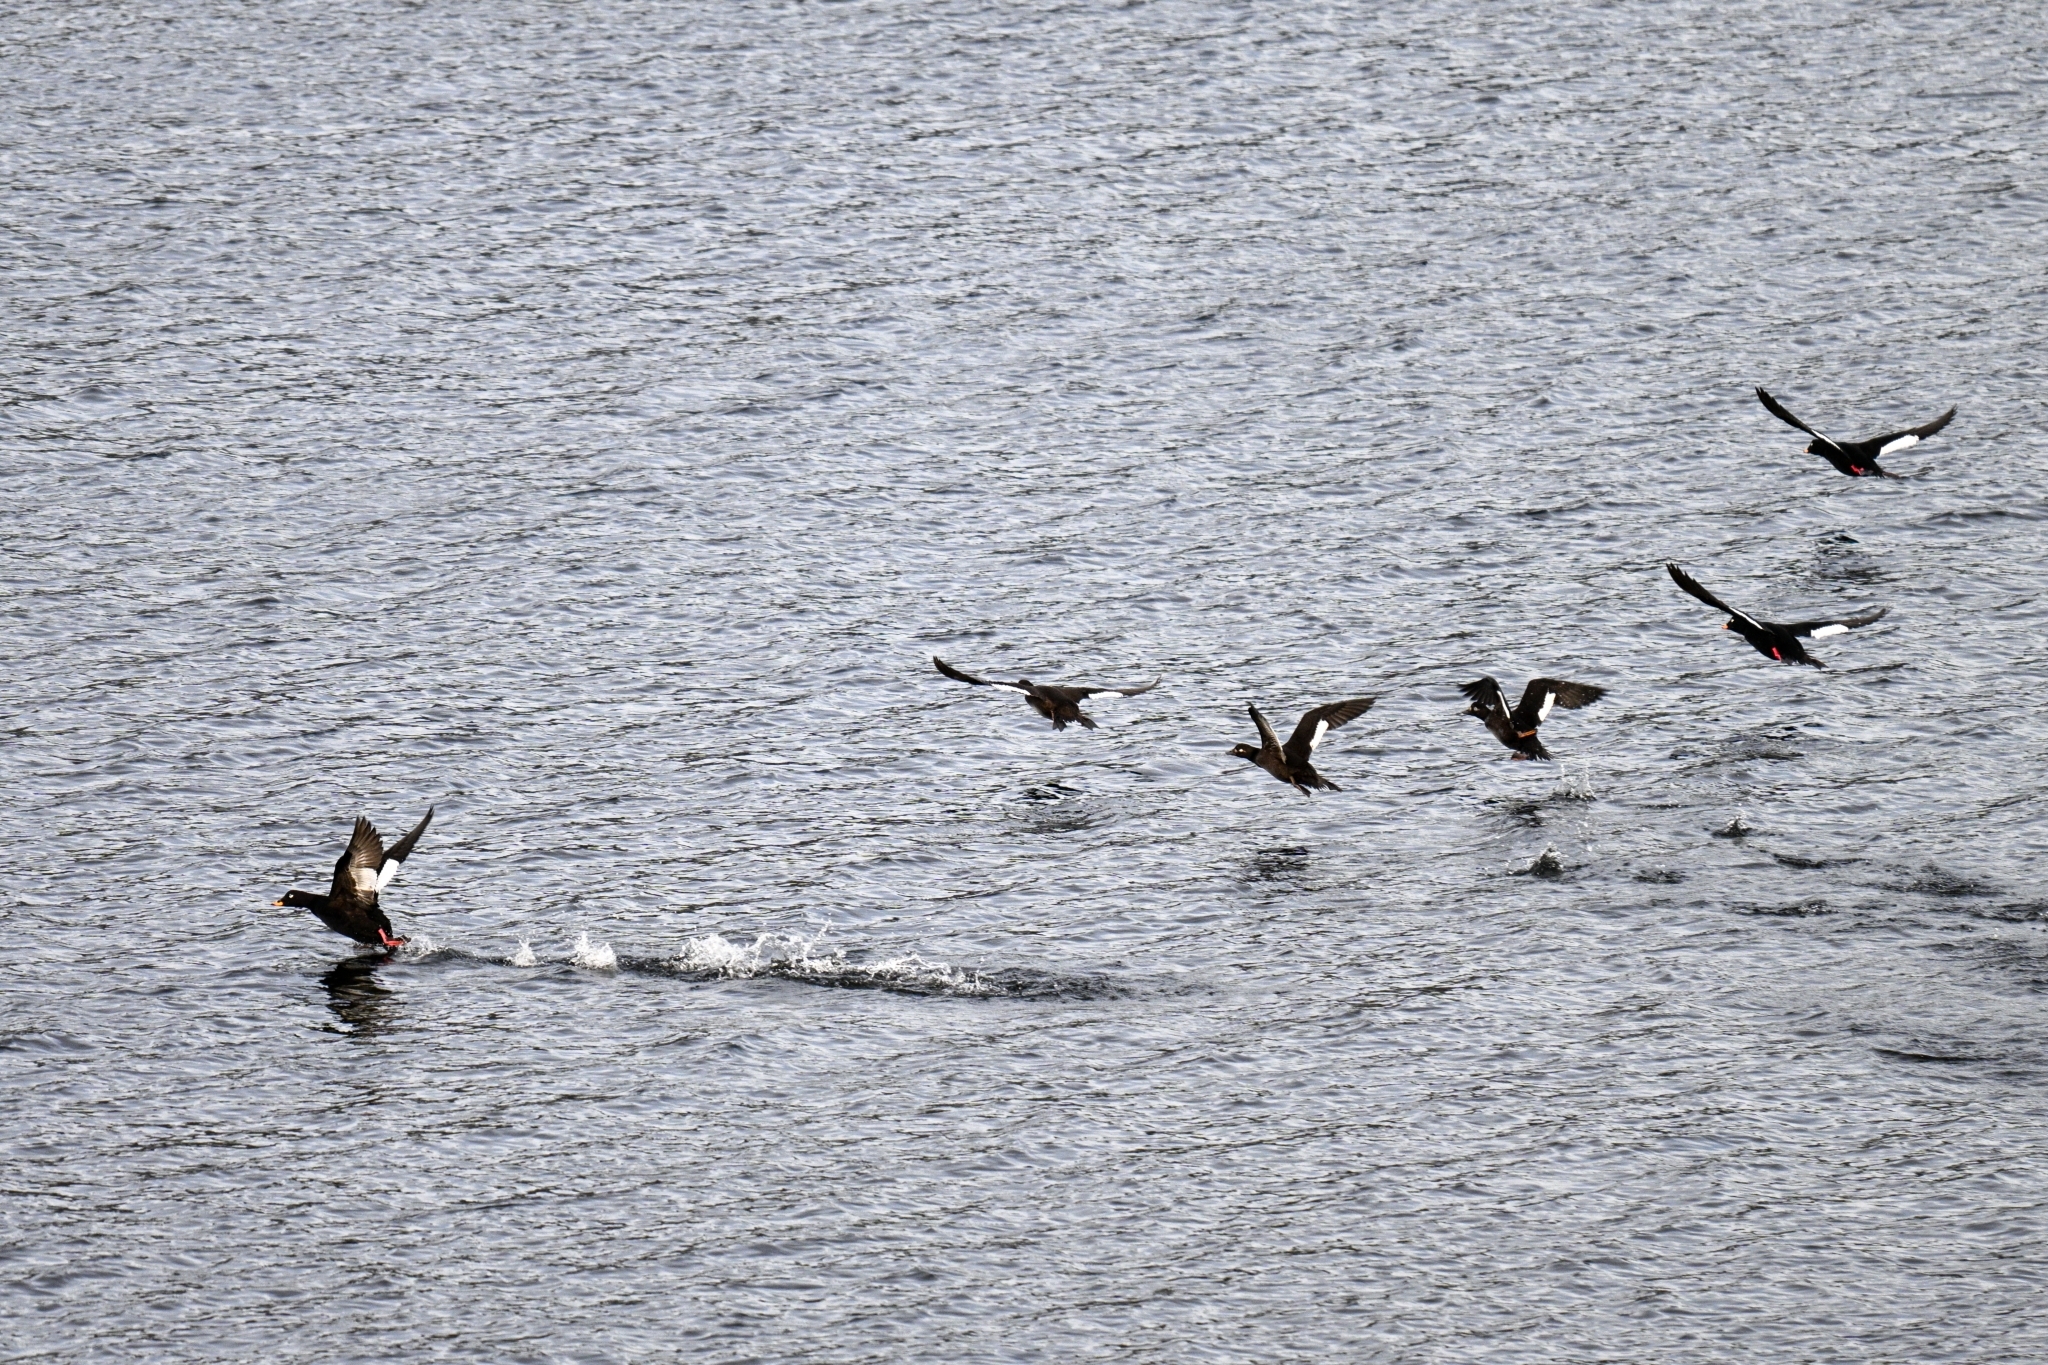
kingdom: Animalia
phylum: Chordata
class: Aves
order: Anseriformes
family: Anatidae
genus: Melanitta
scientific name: Melanitta fusca
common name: Velvet scoter
